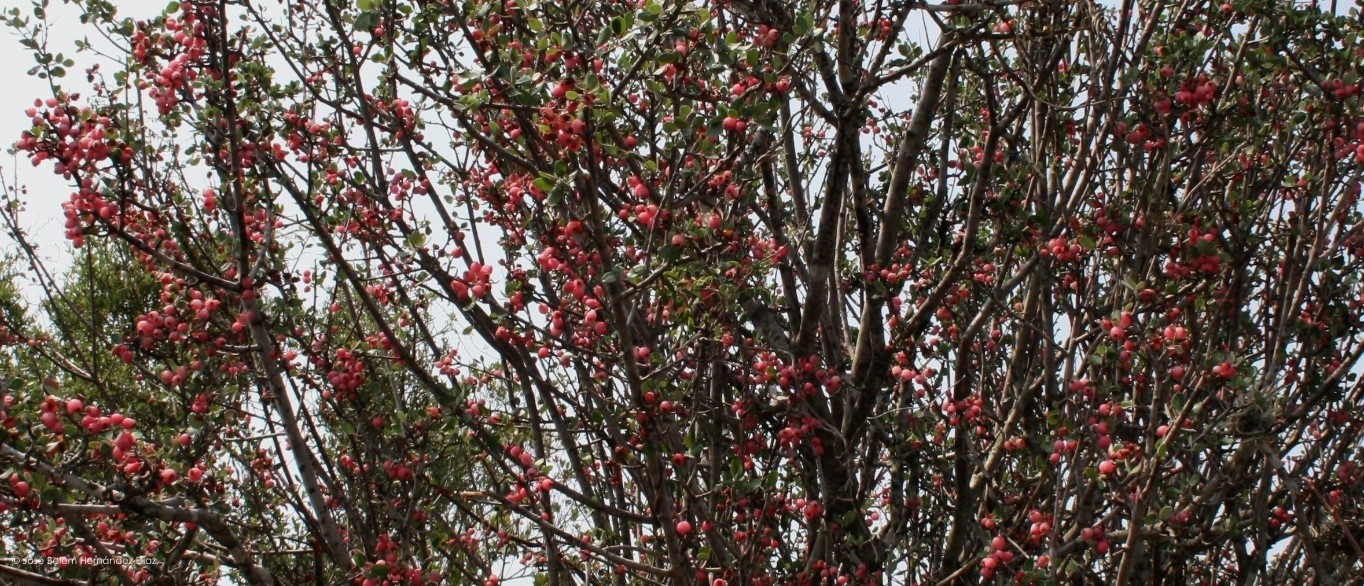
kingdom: Plantae
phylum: Tracheophyta
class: Magnoliopsida
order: Rosales
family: Rosaceae
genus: Malacomeles
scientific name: Malacomeles denticulata
